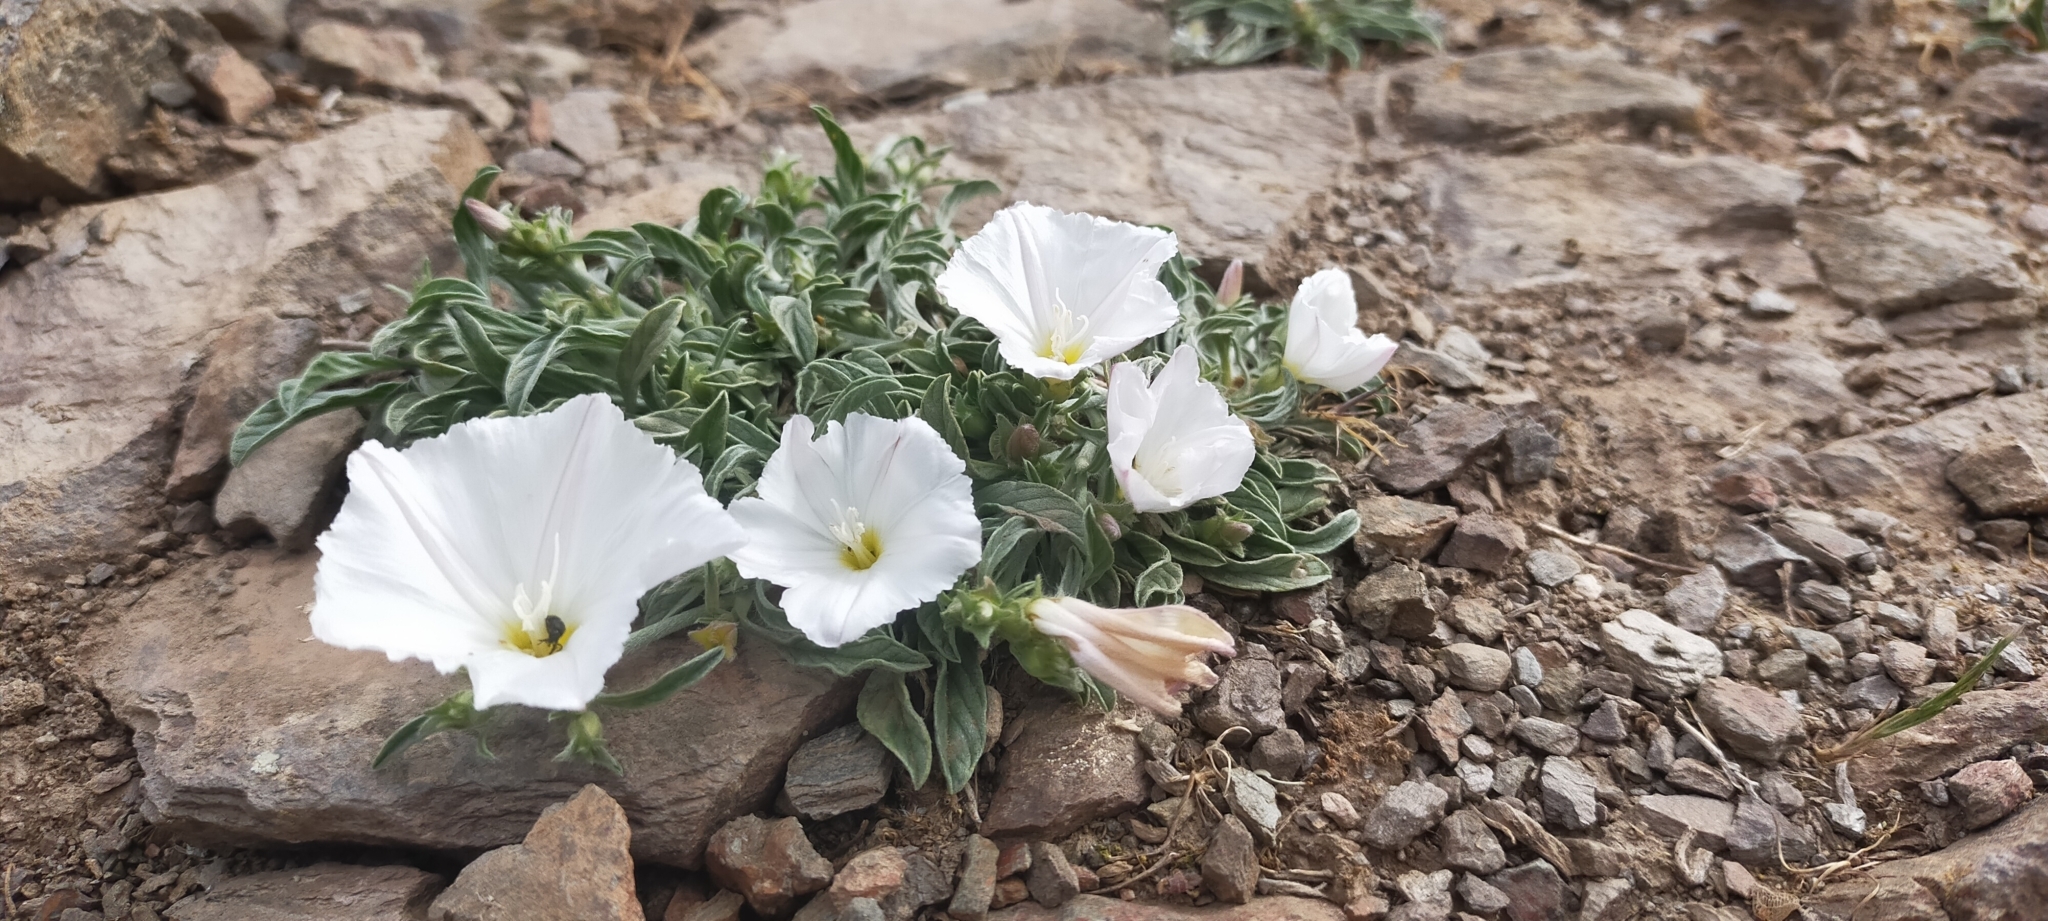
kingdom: Plantae
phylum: Tracheophyta
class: Magnoliopsida
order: Solanales
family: Convolvulaceae
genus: Convolvulus
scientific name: Convolvulus lineatus
